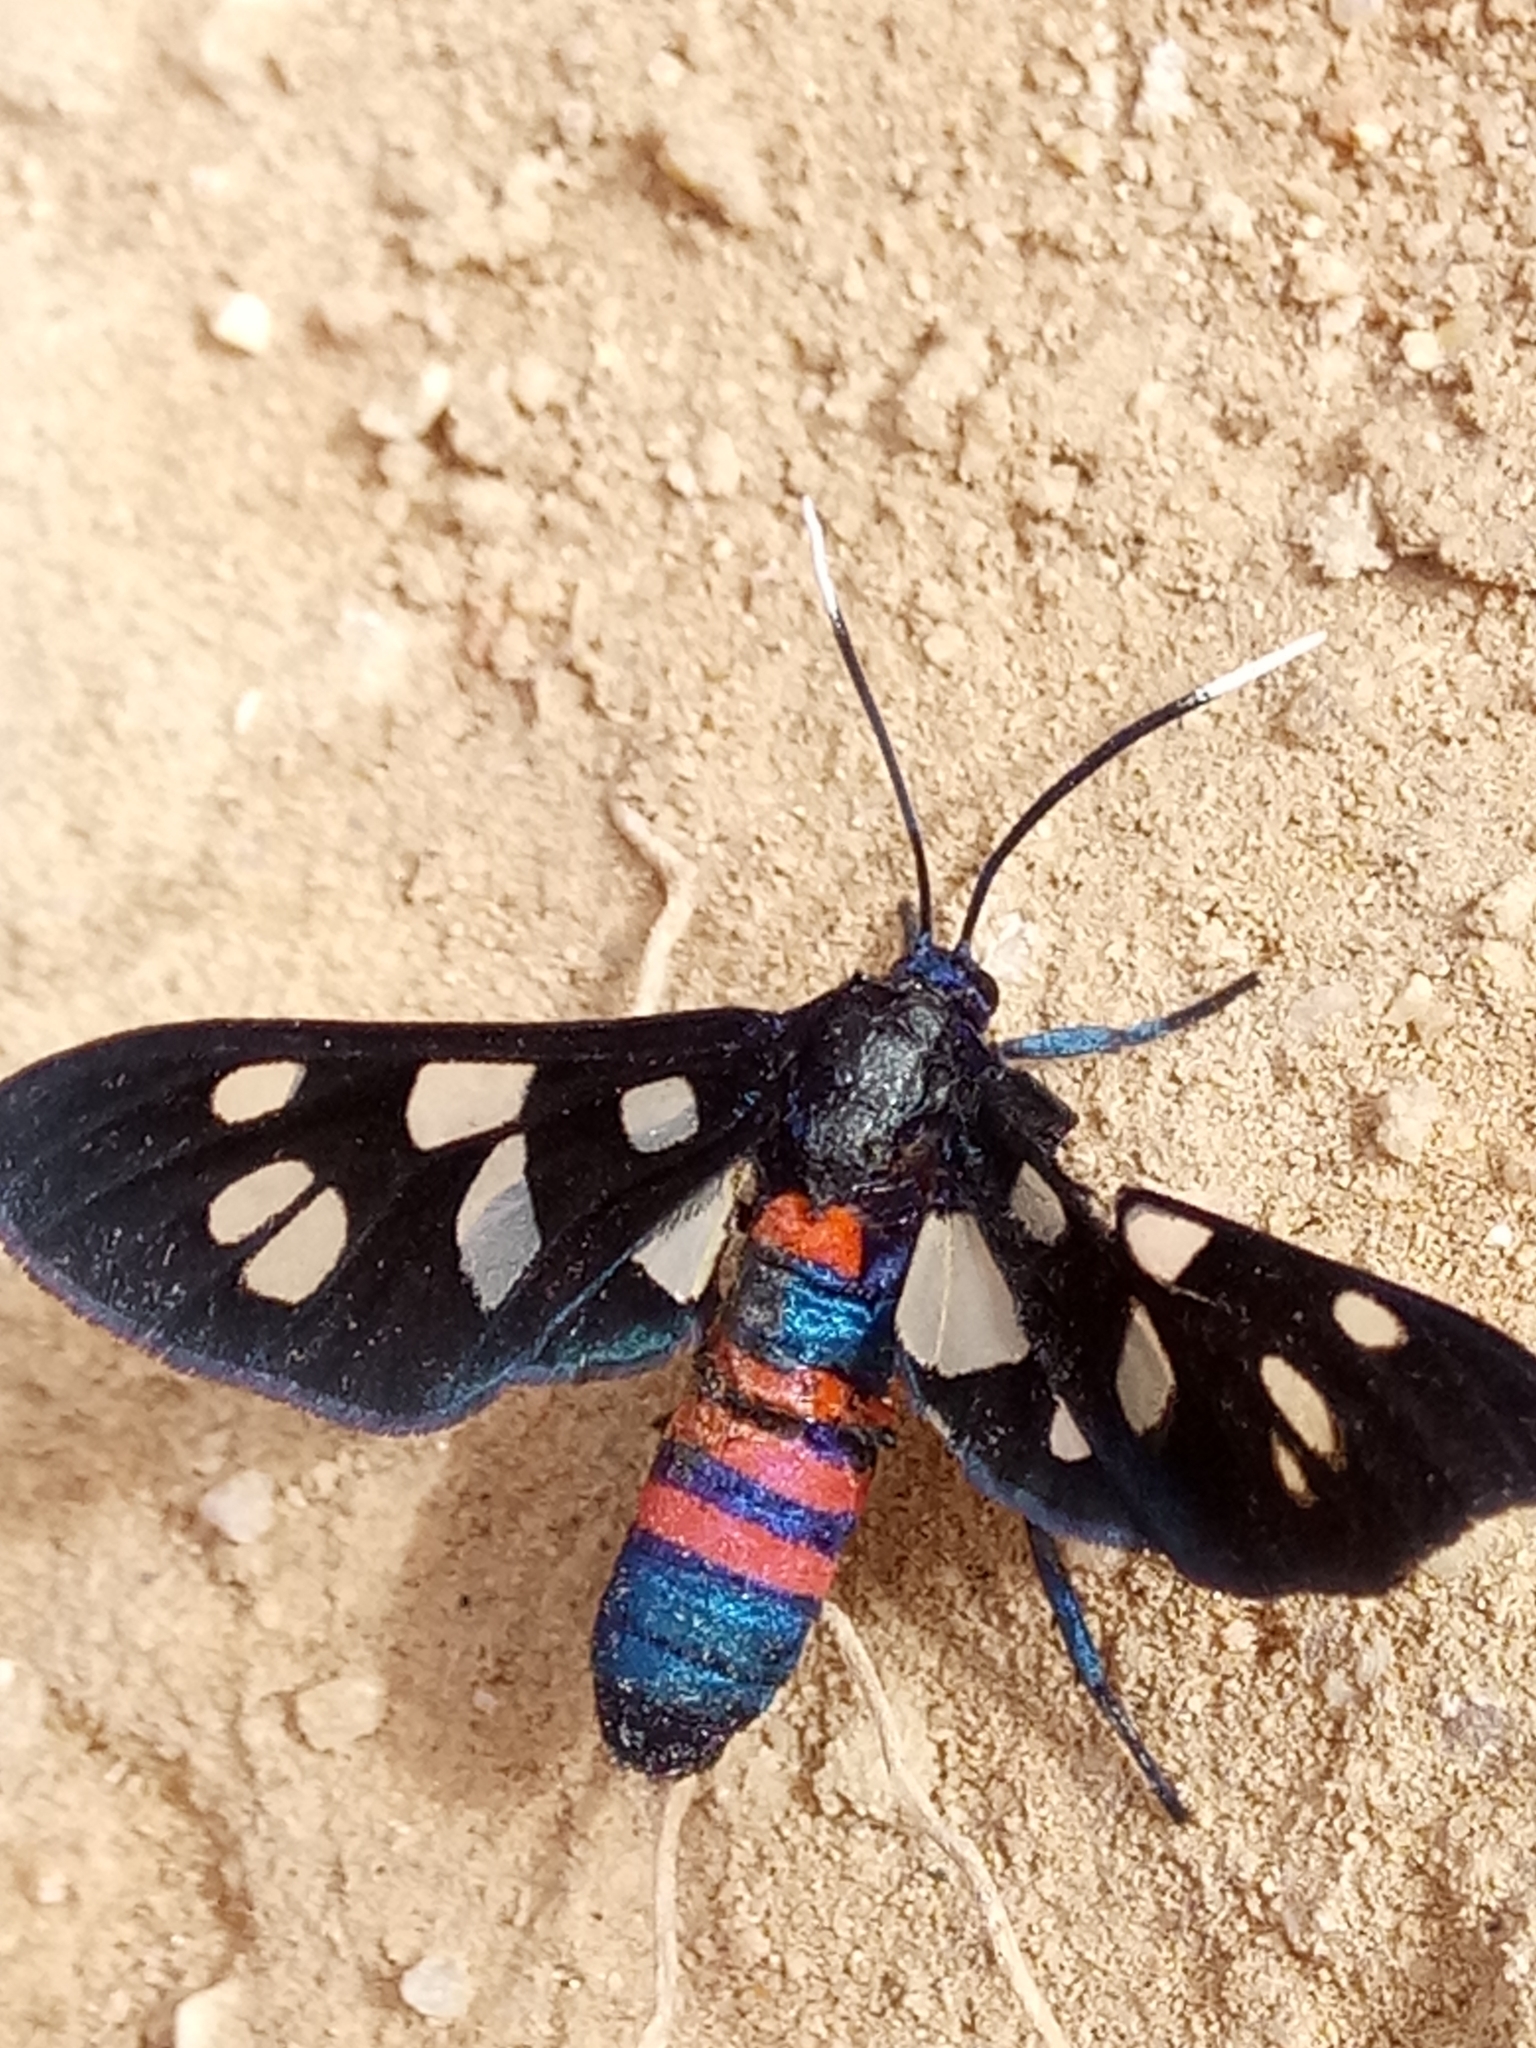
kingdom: Animalia
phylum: Arthropoda
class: Insecta
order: Lepidoptera
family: Erebidae
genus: Amata
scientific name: Amata alicia
